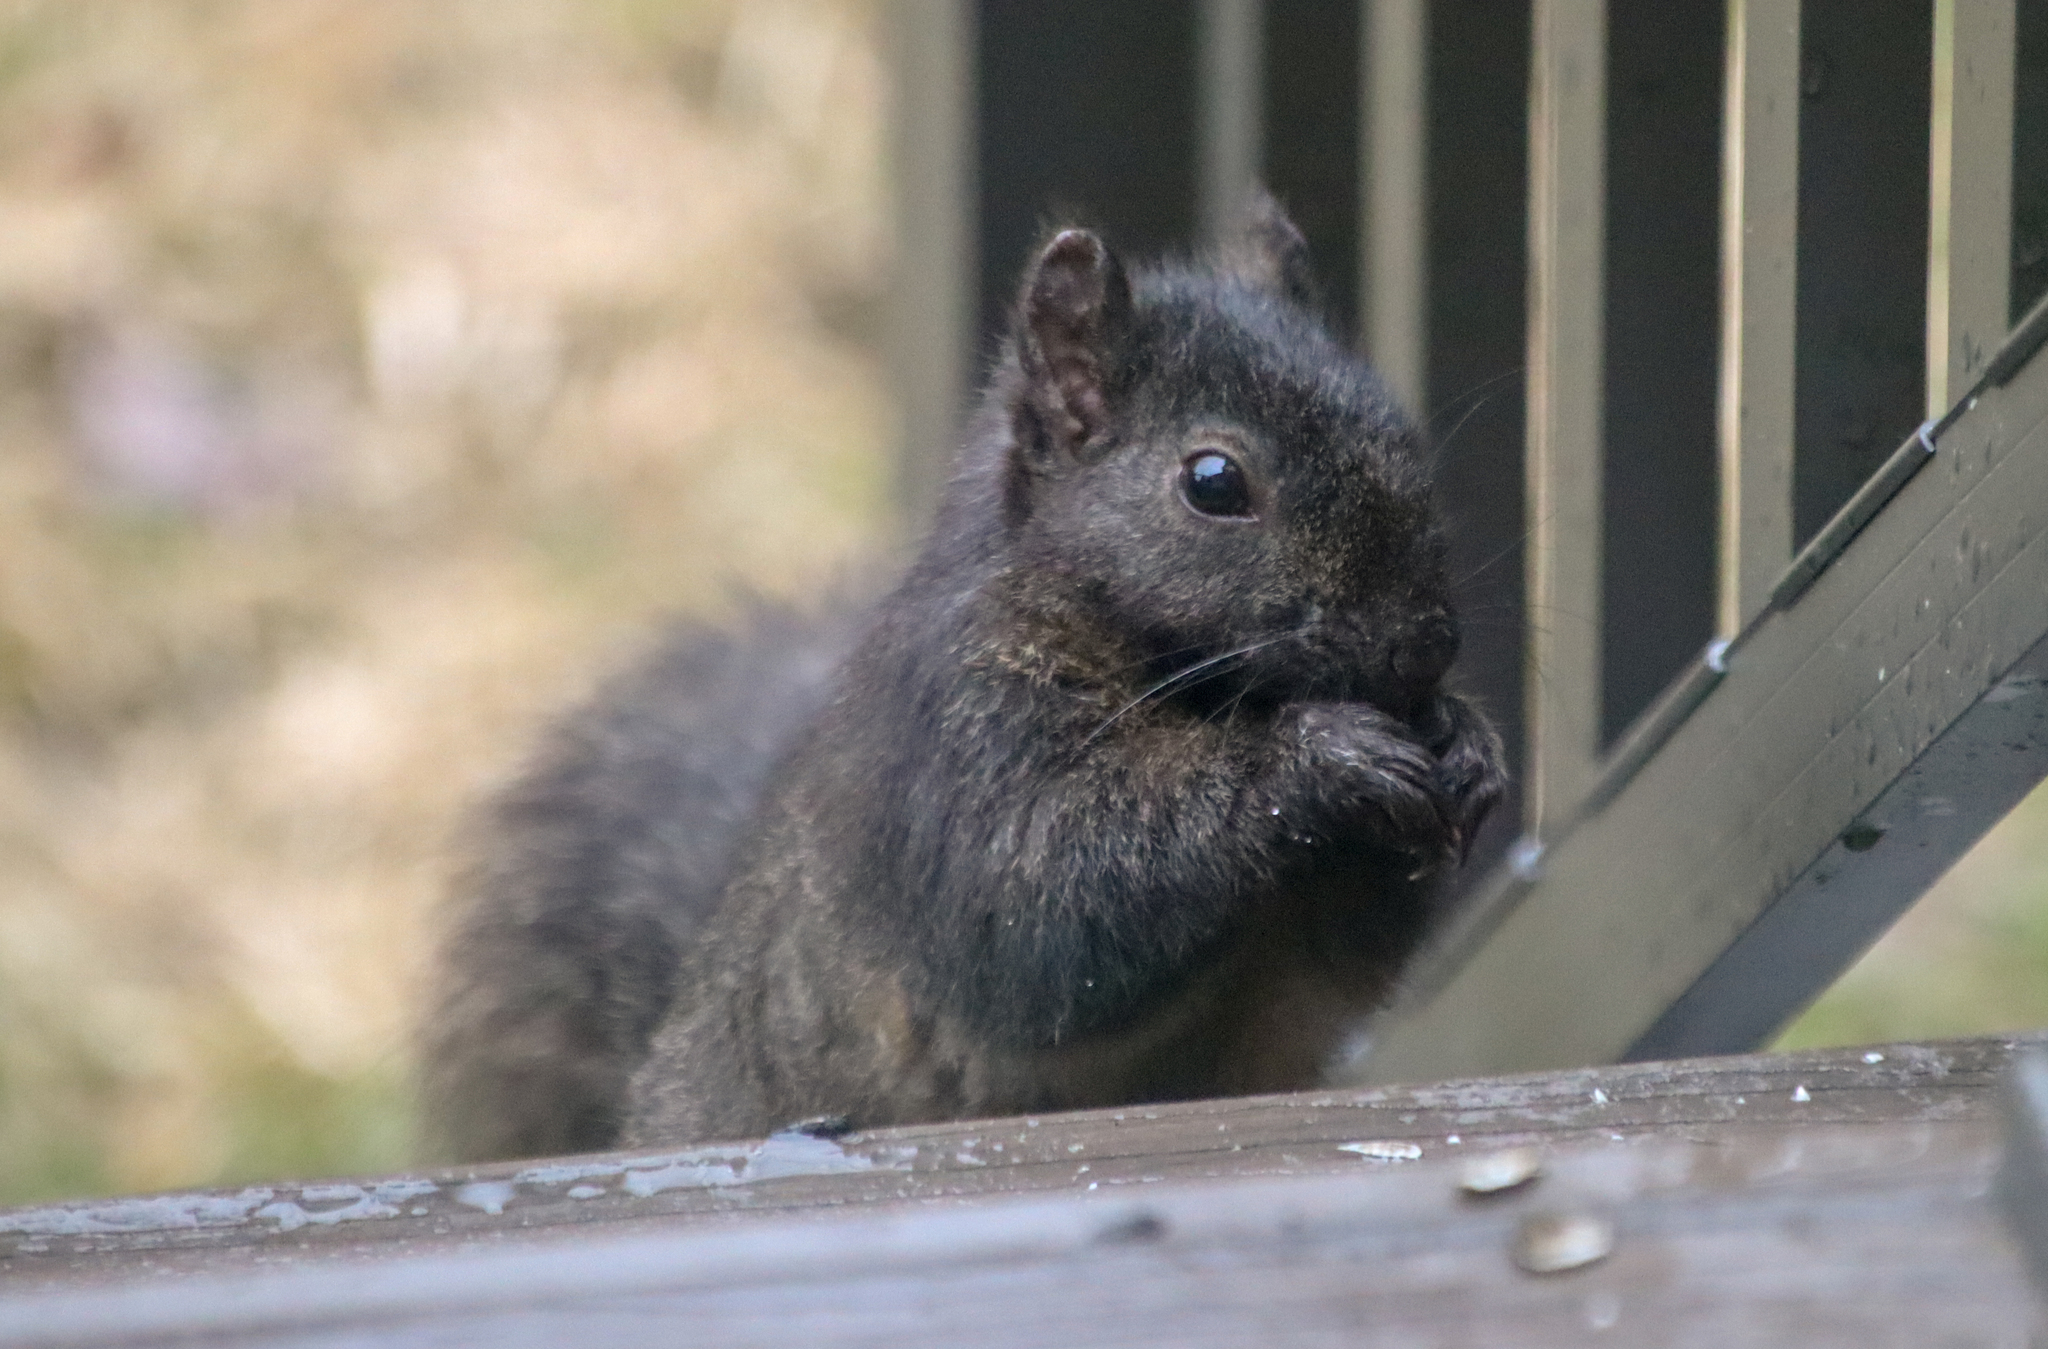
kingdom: Animalia
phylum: Chordata
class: Mammalia
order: Rodentia
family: Sciuridae
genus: Sciurus
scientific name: Sciurus carolinensis
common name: Eastern gray squirrel
